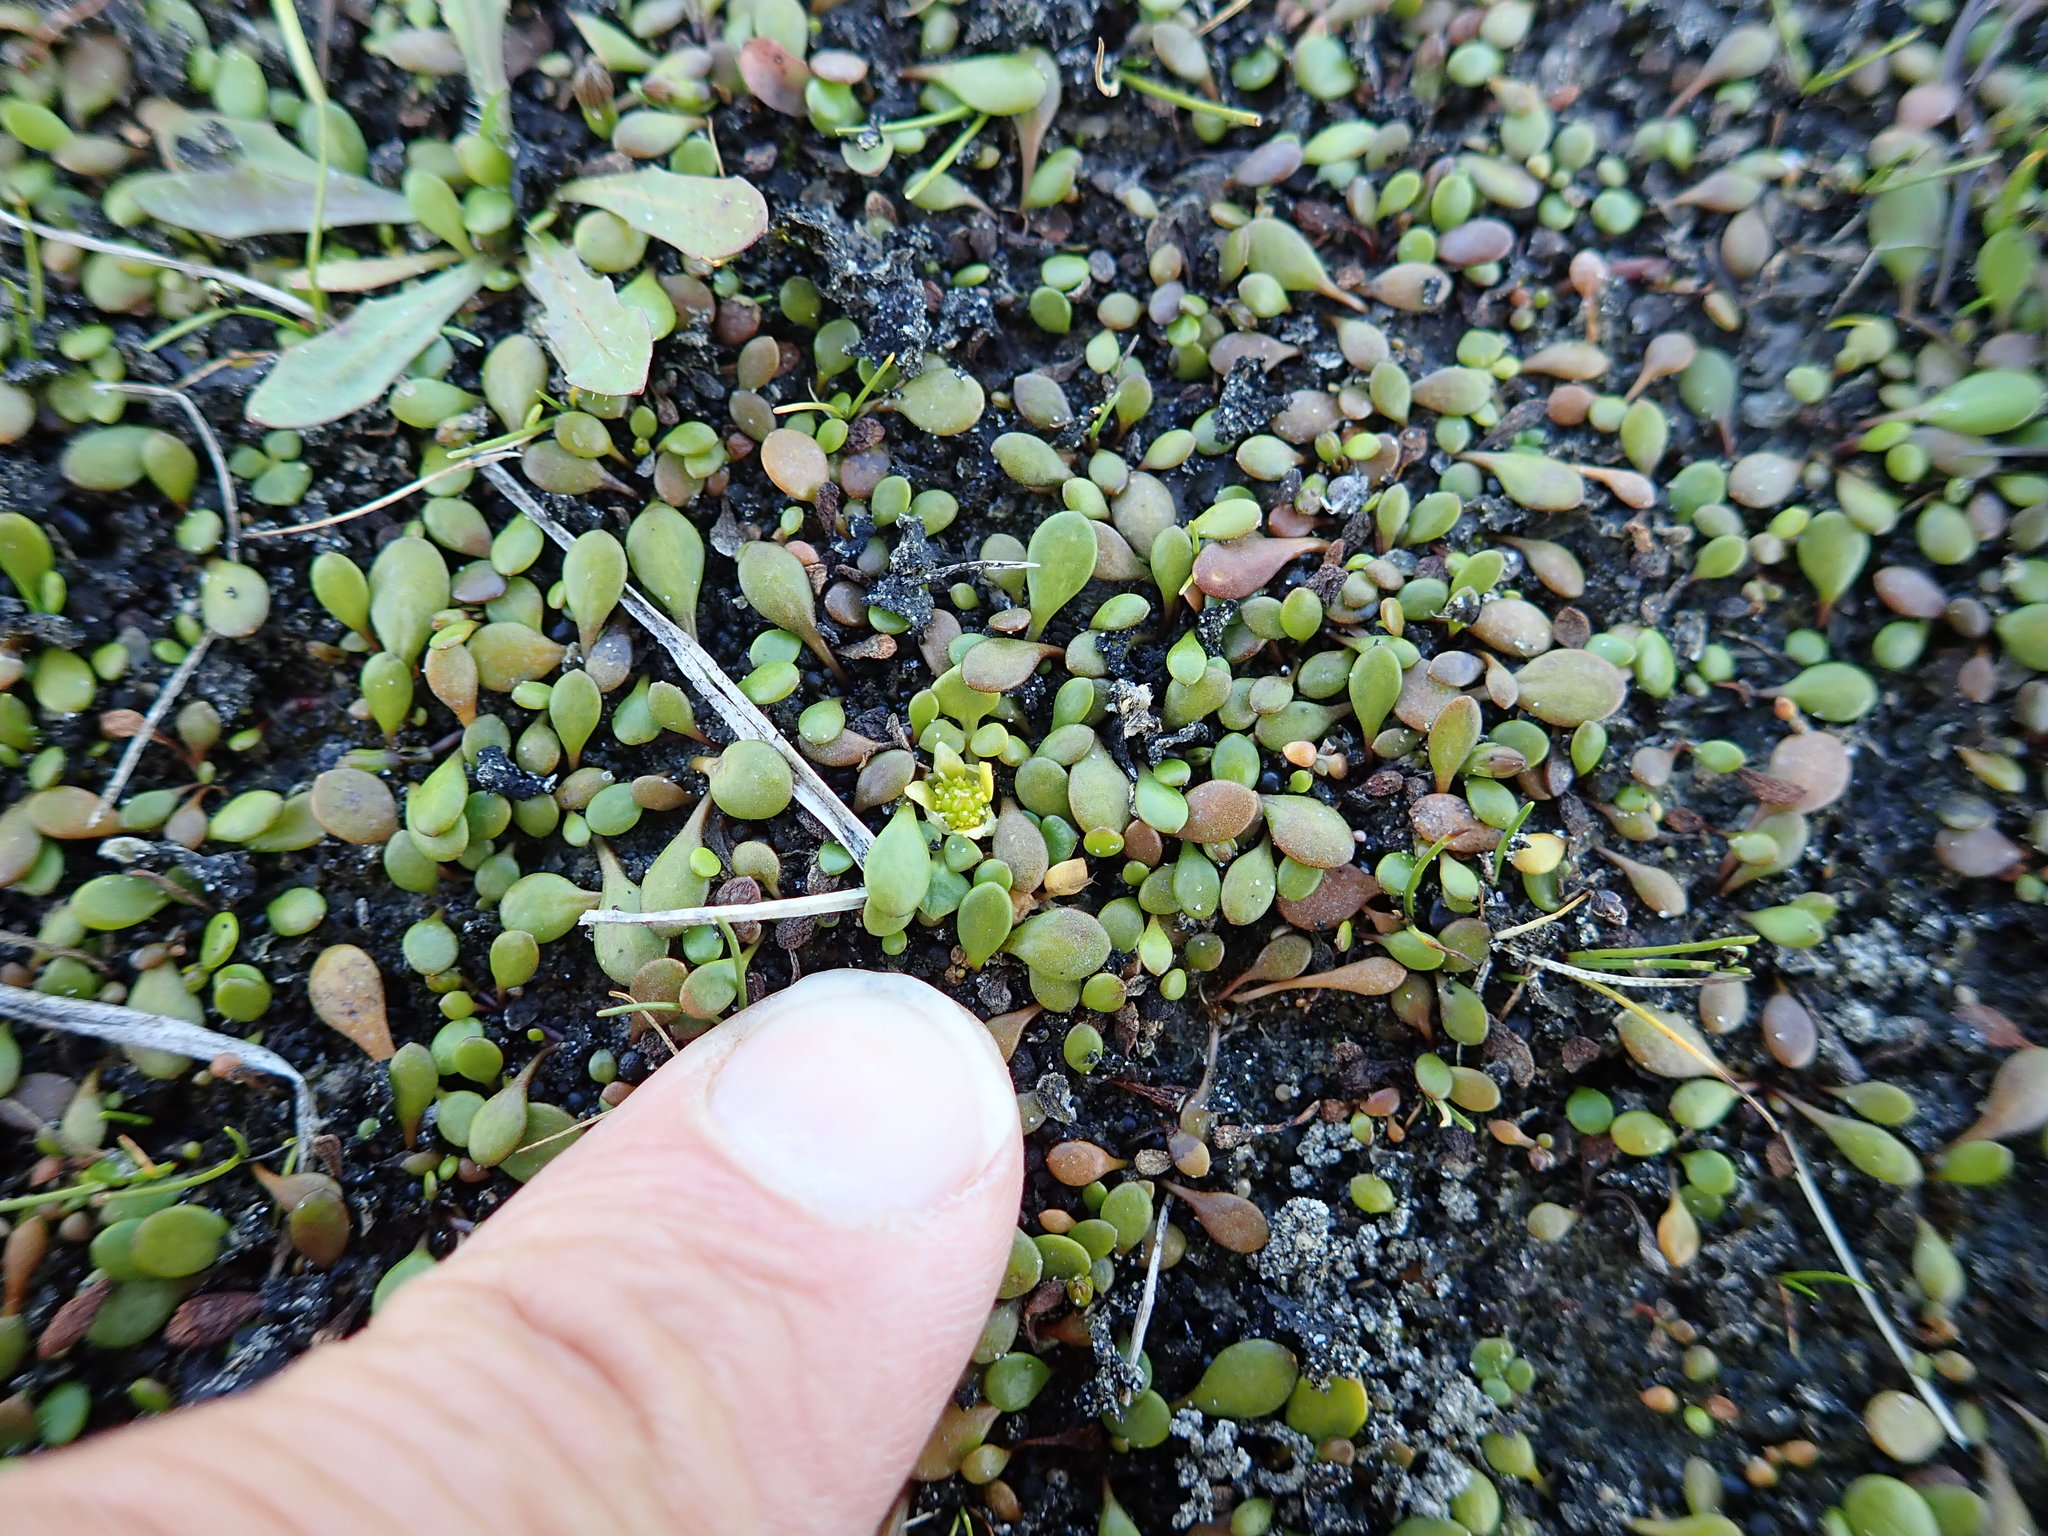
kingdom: Plantae
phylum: Tracheophyta
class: Magnoliopsida
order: Ranunculales
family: Ranunculaceae
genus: Ranunculus
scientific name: Ranunculus acaulis
